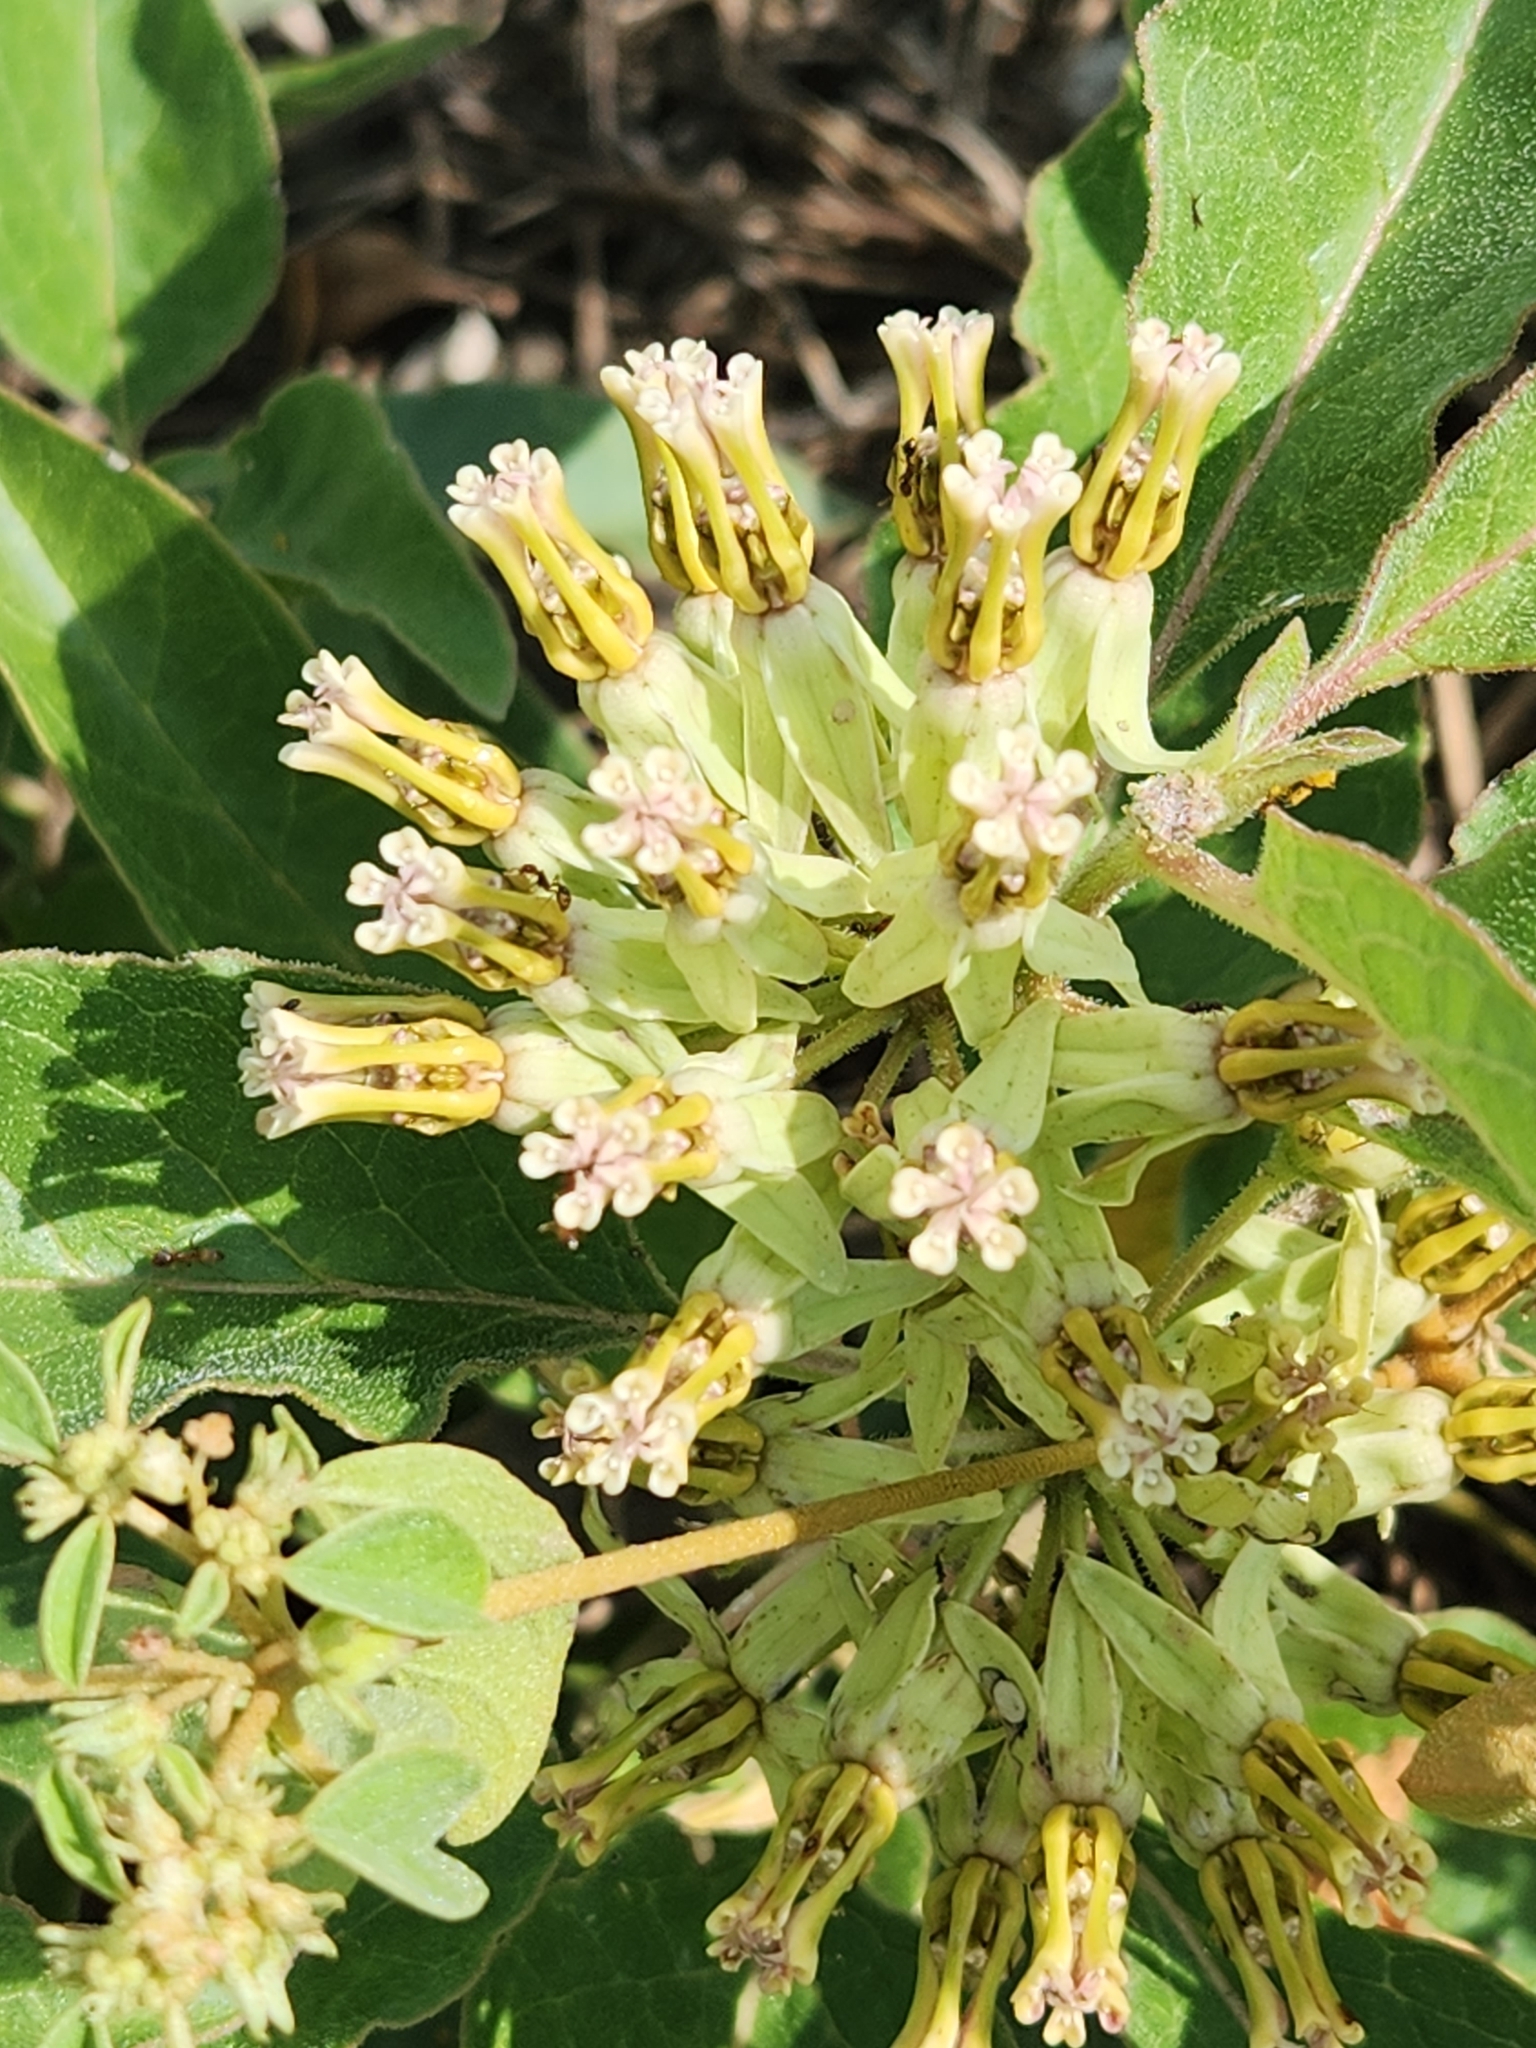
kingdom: Plantae
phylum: Tracheophyta
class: Magnoliopsida
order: Gentianales
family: Apocynaceae
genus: Asclepias
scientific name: Asclepias oenotheroides
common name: Zizotes milkweed
